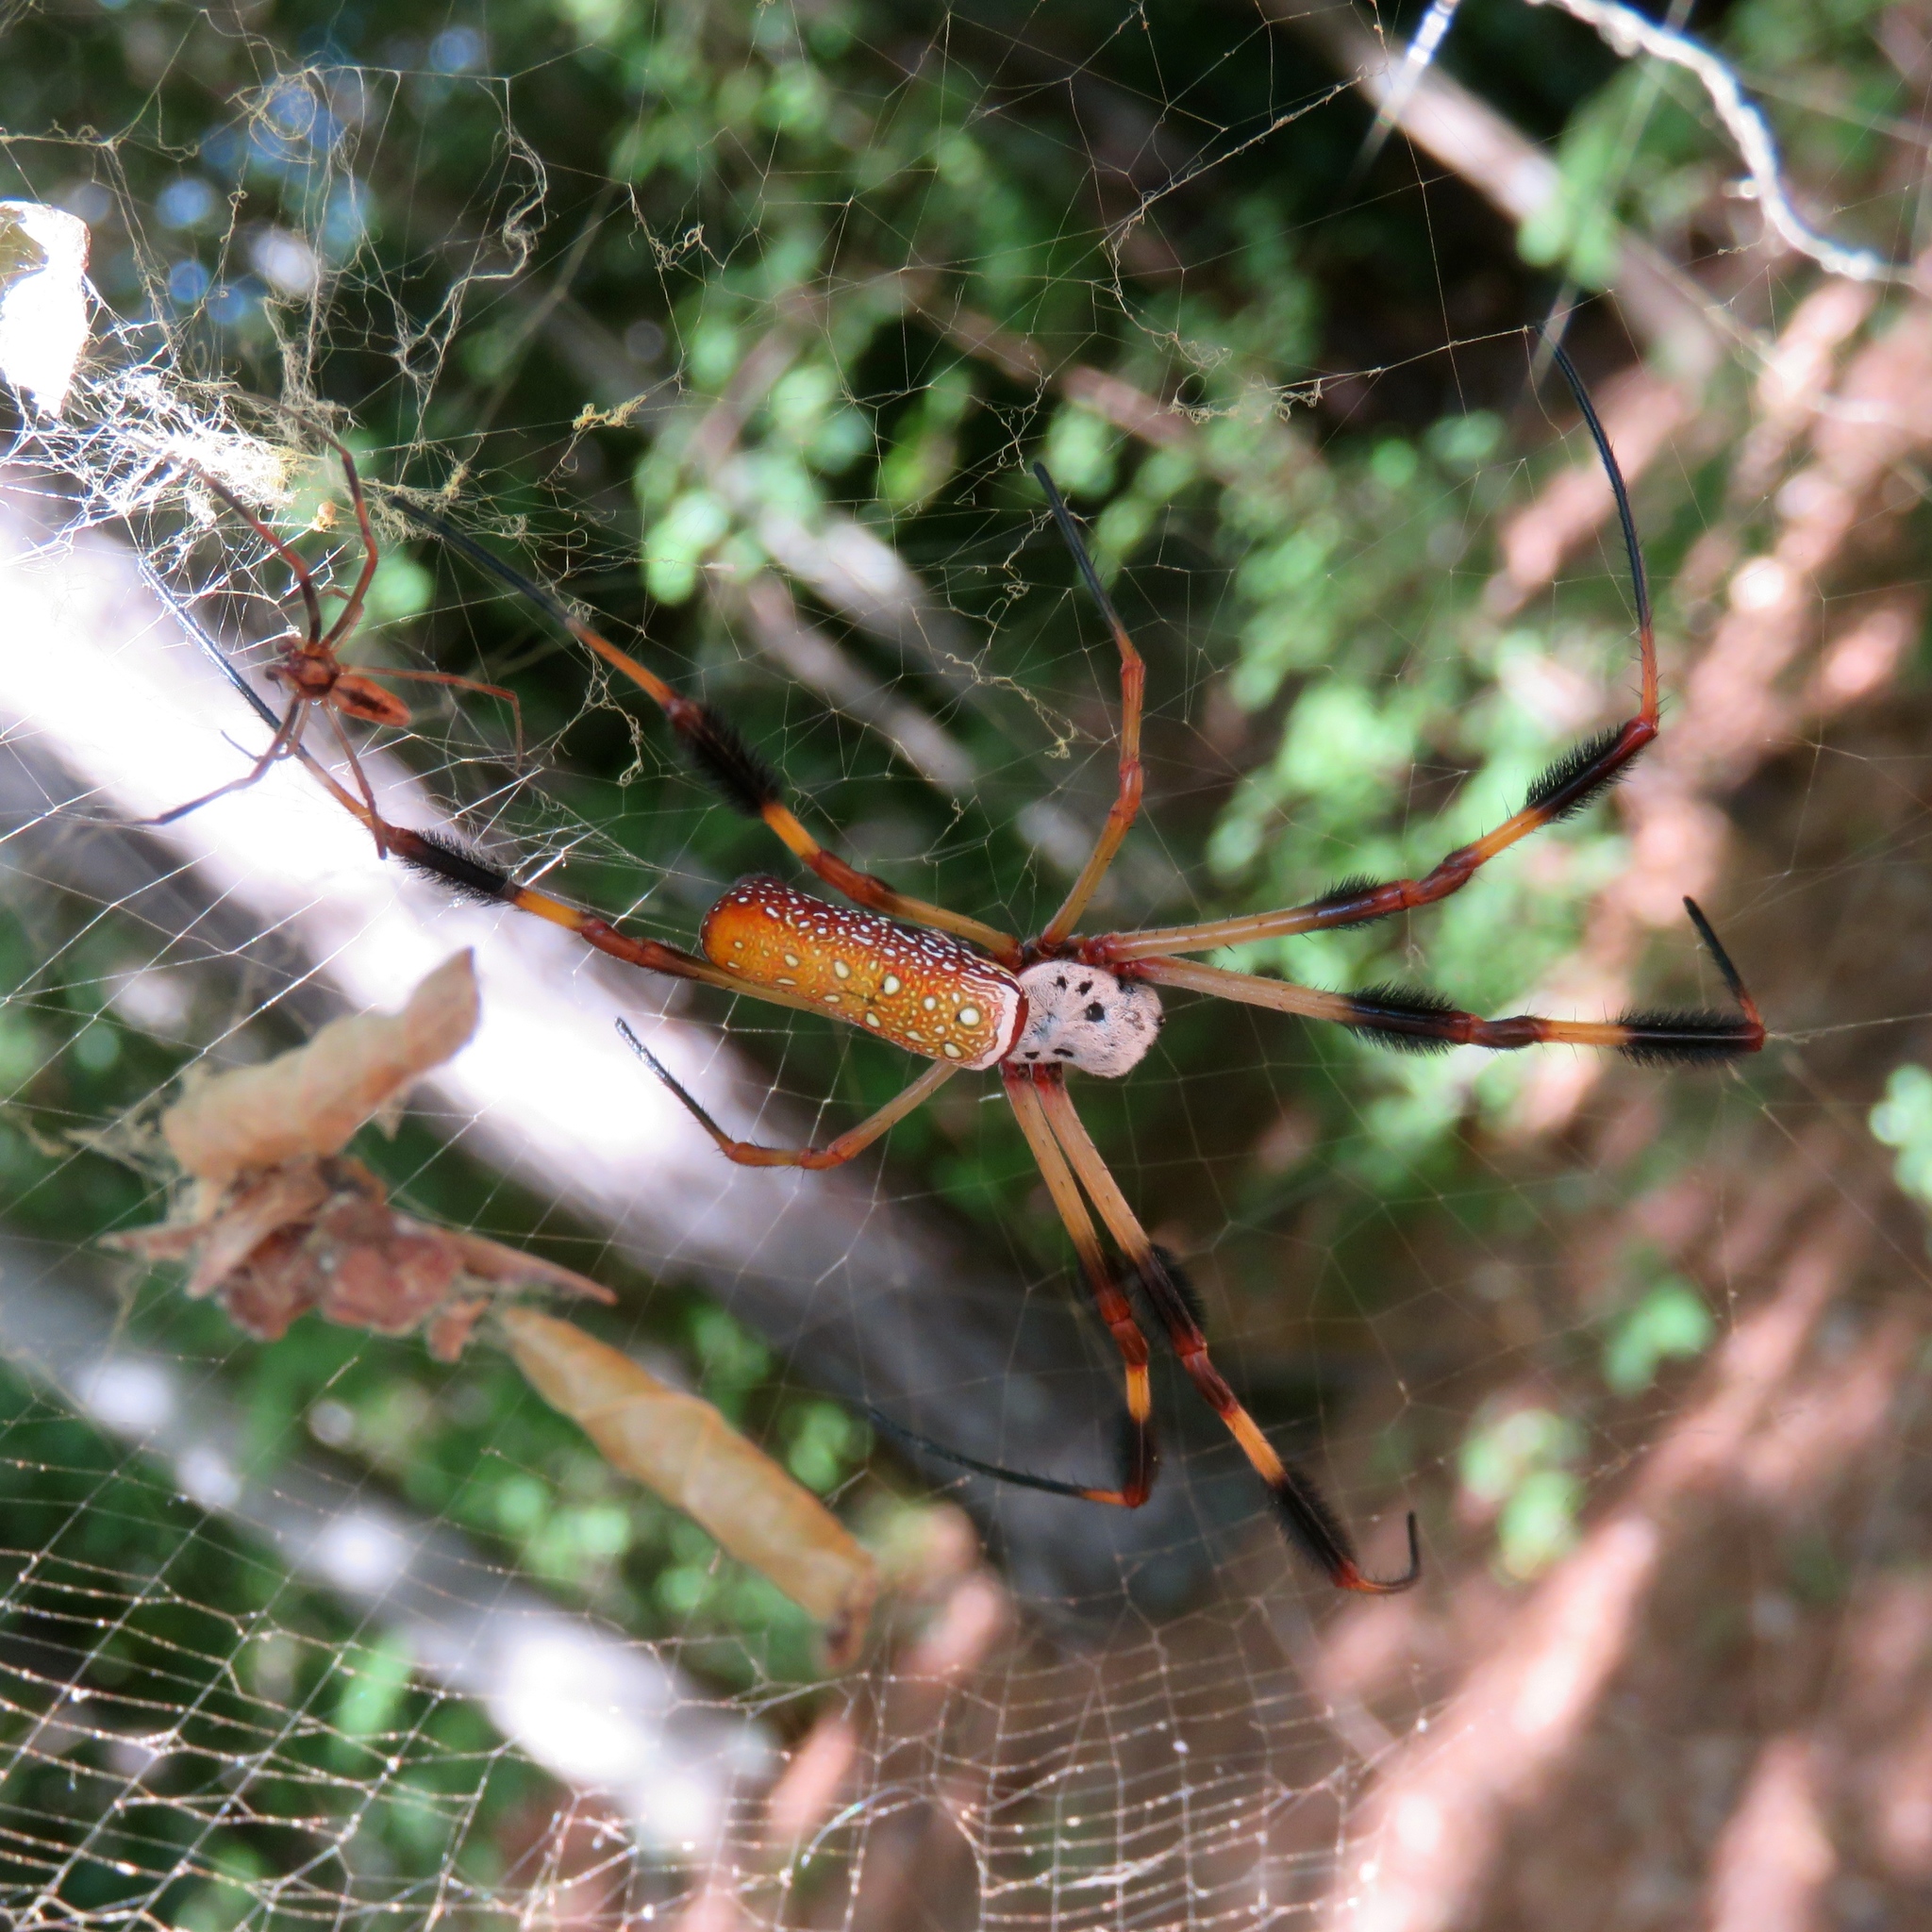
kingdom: Animalia
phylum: Arthropoda
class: Arachnida
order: Araneae
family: Araneidae
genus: Trichonephila
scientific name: Trichonephila clavipes
